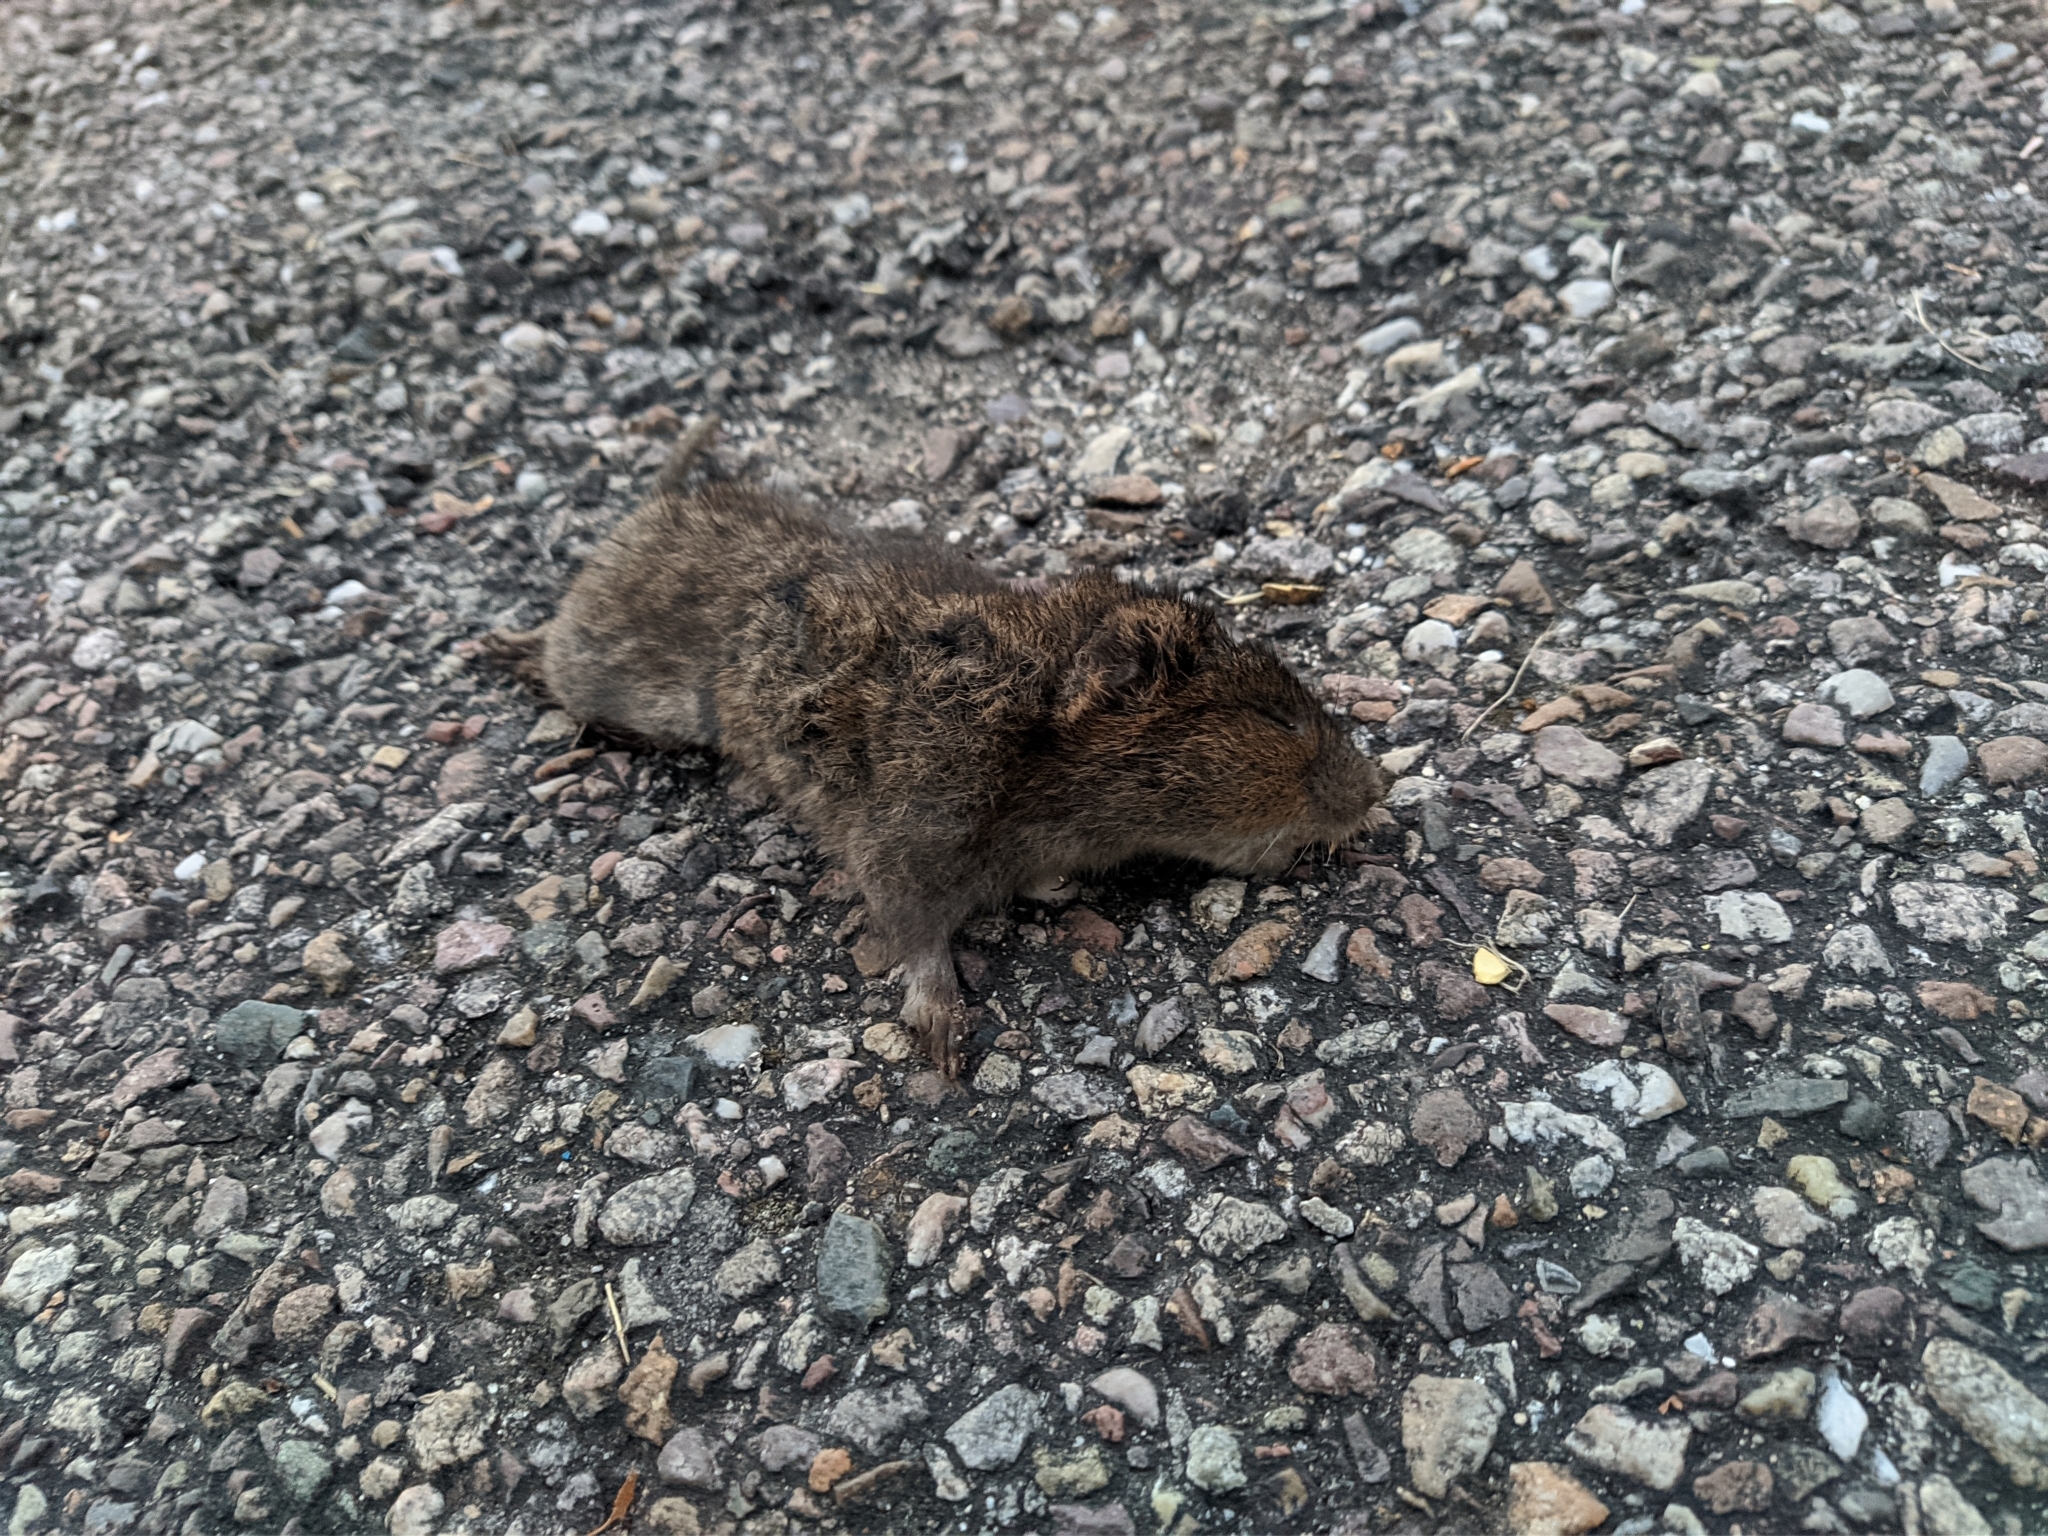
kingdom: Animalia
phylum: Chordata
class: Mammalia
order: Rodentia
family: Muridae
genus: Rattus
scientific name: Rattus norvegicus
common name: Brown rat
